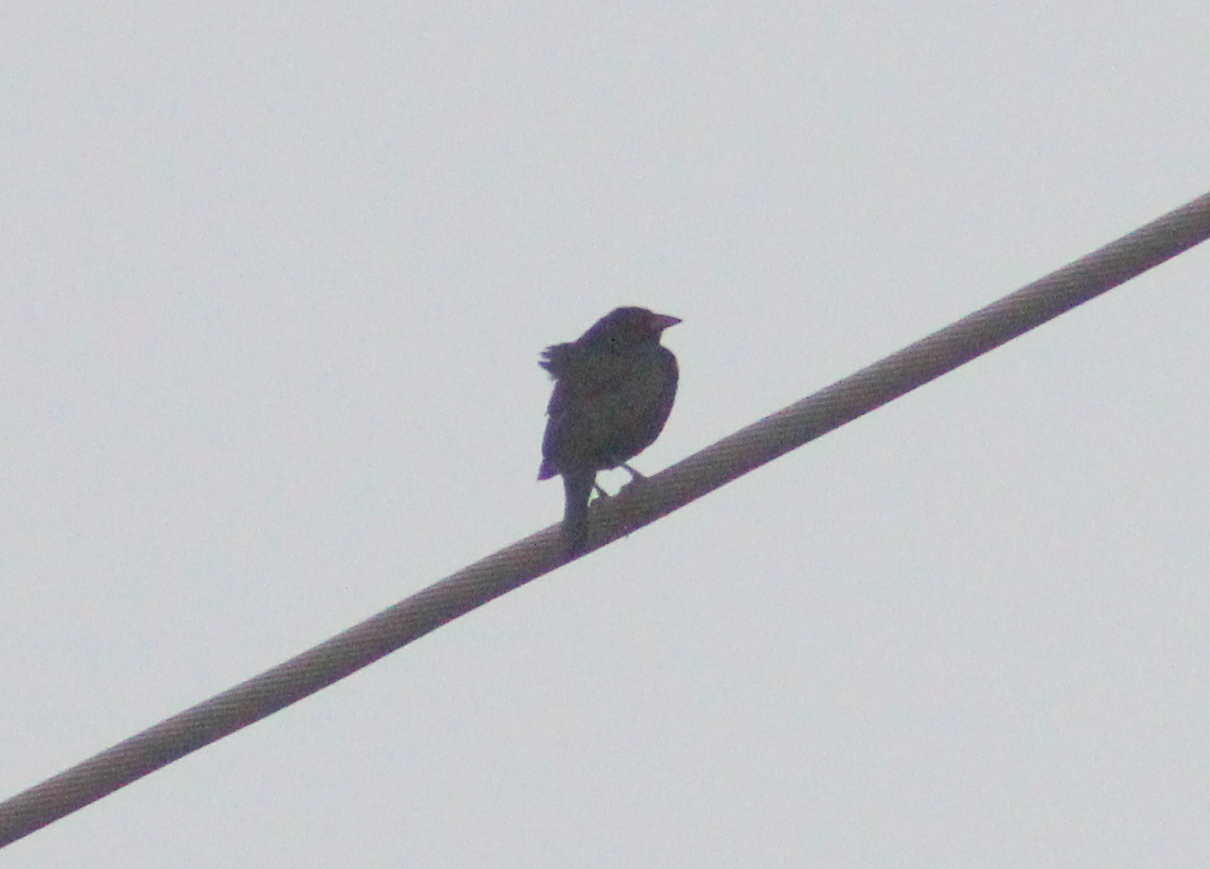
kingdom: Animalia
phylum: Chordata
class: Aves
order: Passeriformes
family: Icteridae
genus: Molothrus
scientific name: Molothrus aeneus
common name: Bronzed cowbird
